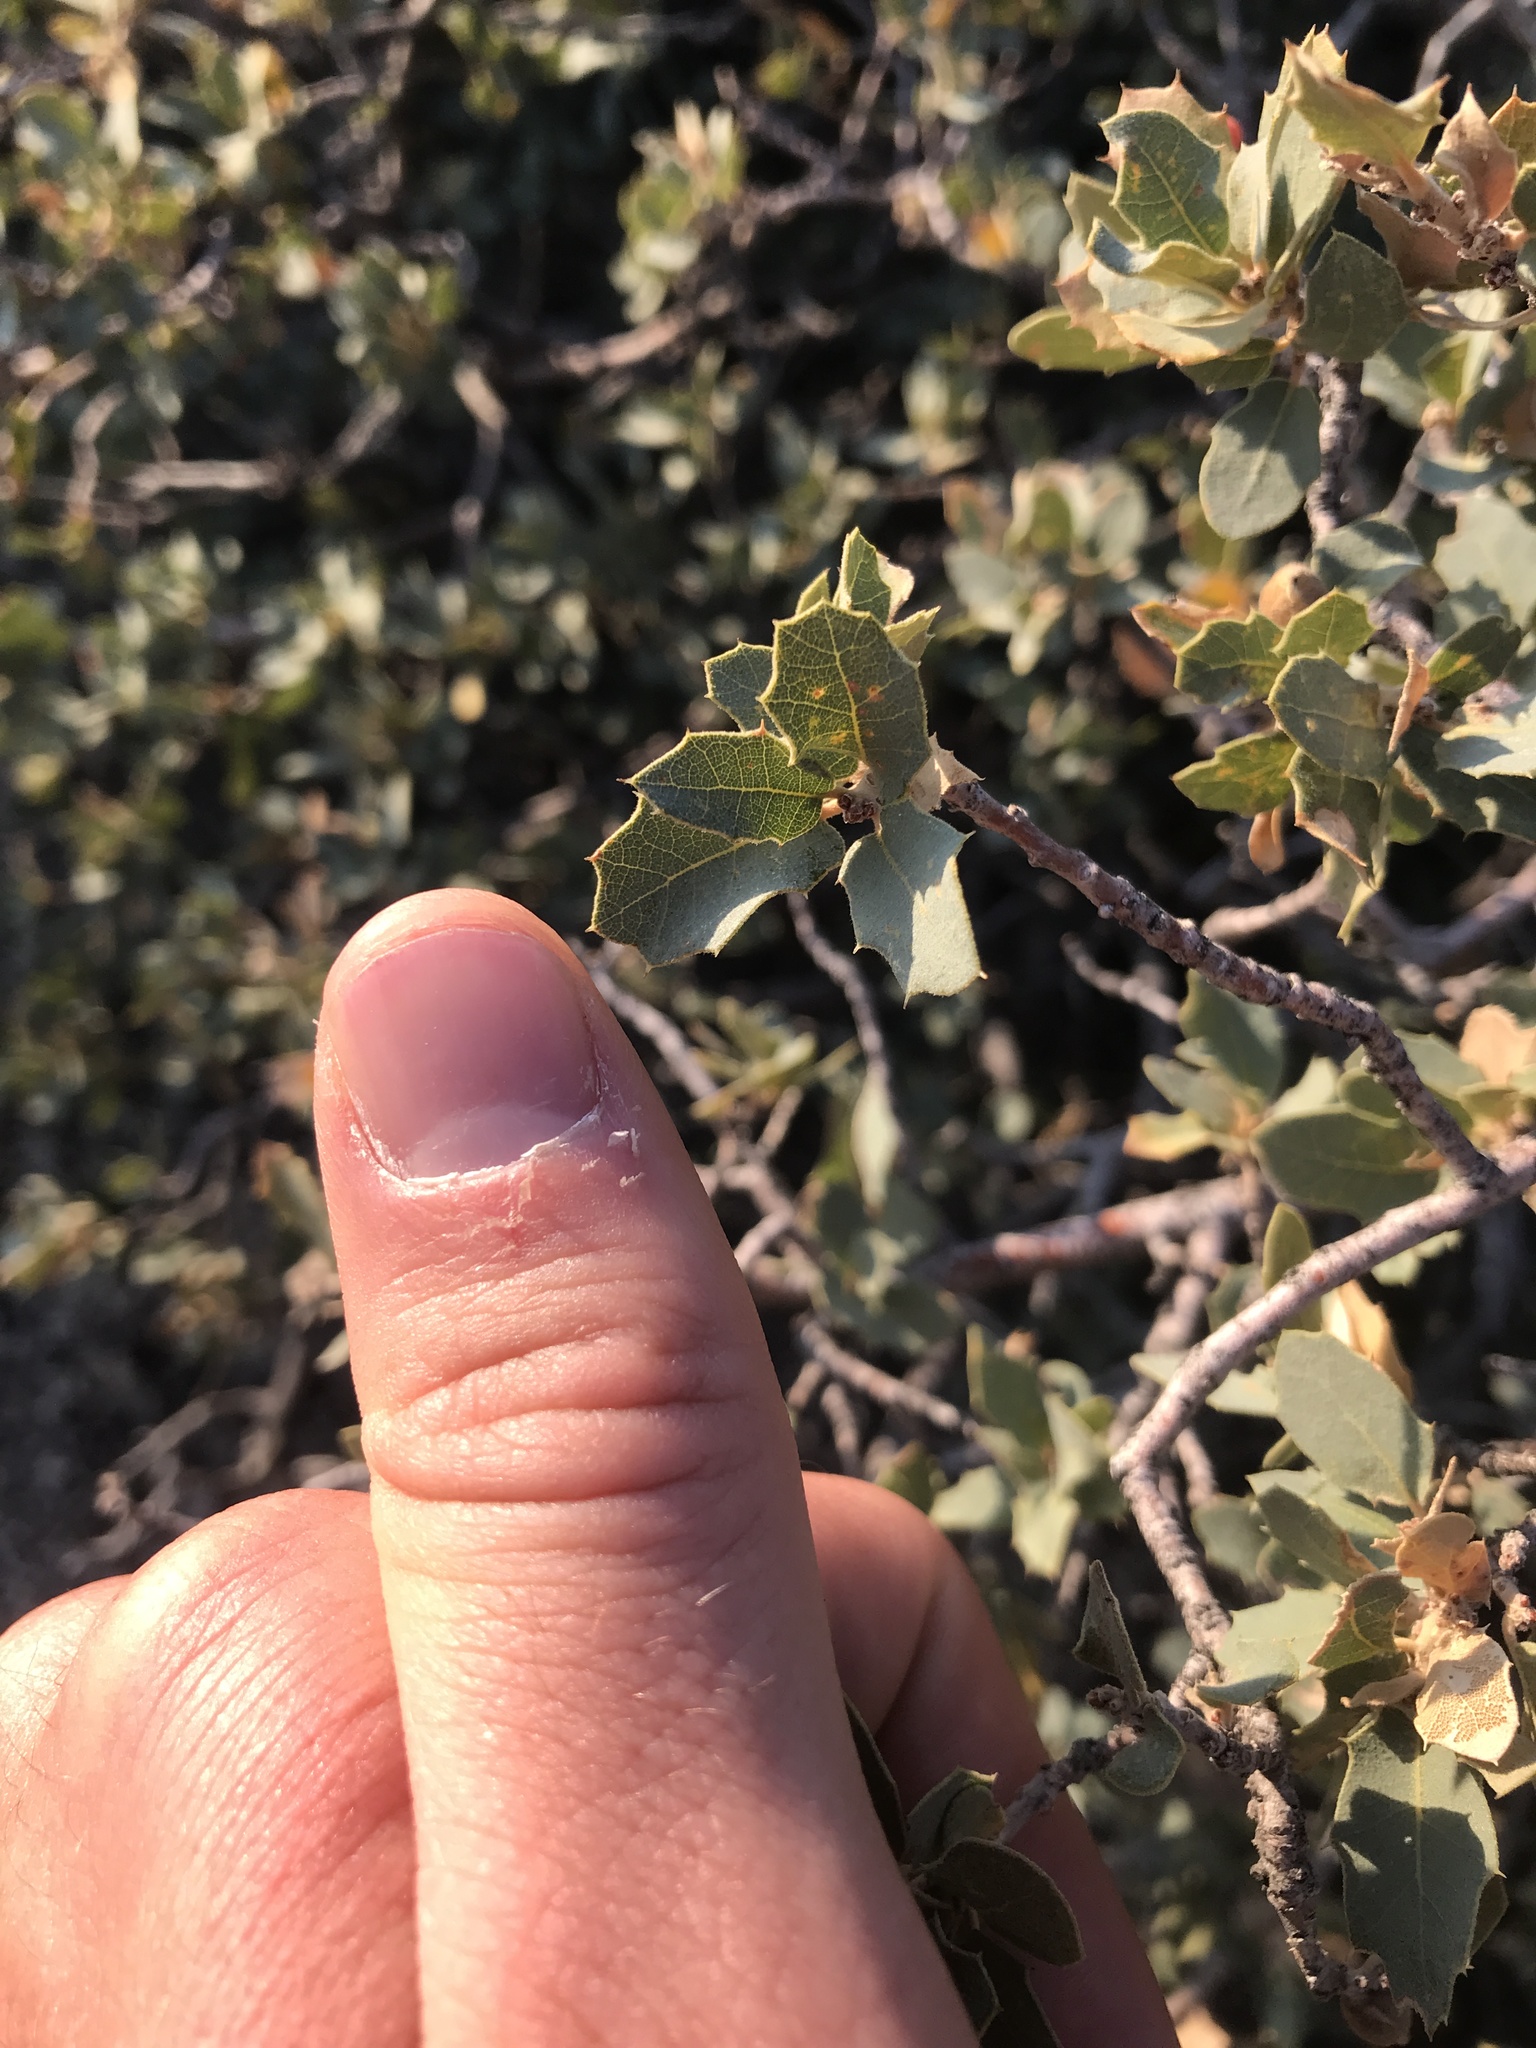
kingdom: Plantae
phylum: Tracheophyta
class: Magnoliopsida
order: Fagales
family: Fagaceae
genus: Quercus
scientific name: Quercus turbinella
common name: Sonoran scrub oak
